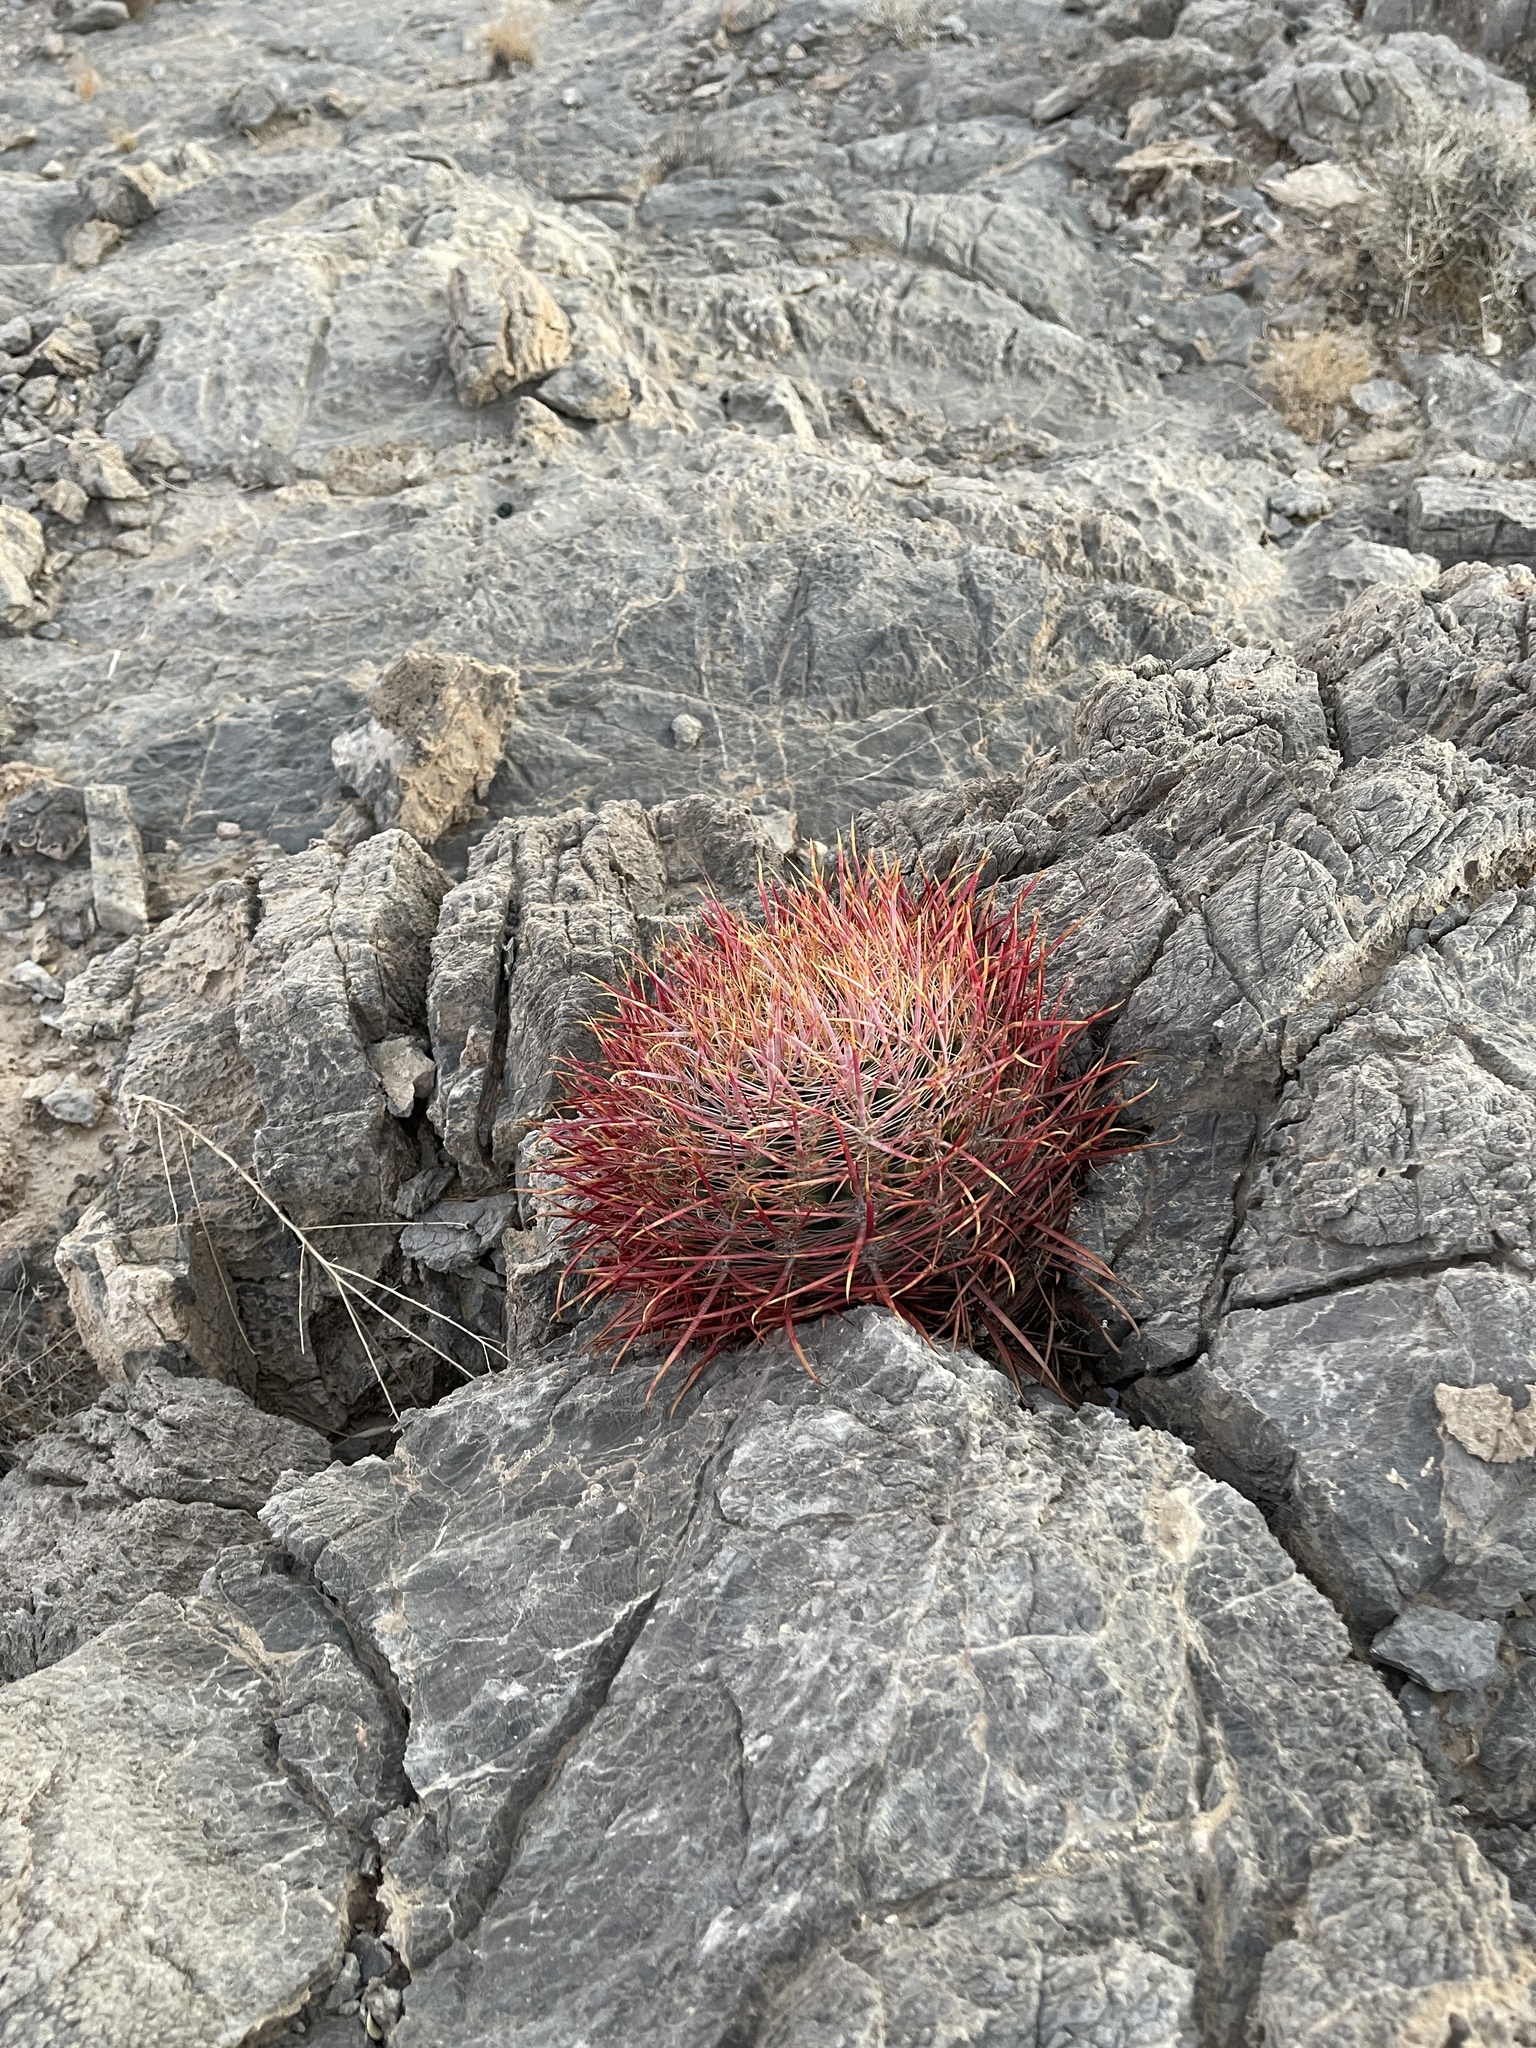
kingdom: Plantae
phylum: Tracheophyta
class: Magnoliopsida
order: Caryophyllales
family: Cactaceae
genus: Ferocactus
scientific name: Ferocactus cylindraceus
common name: California barrel cactus
